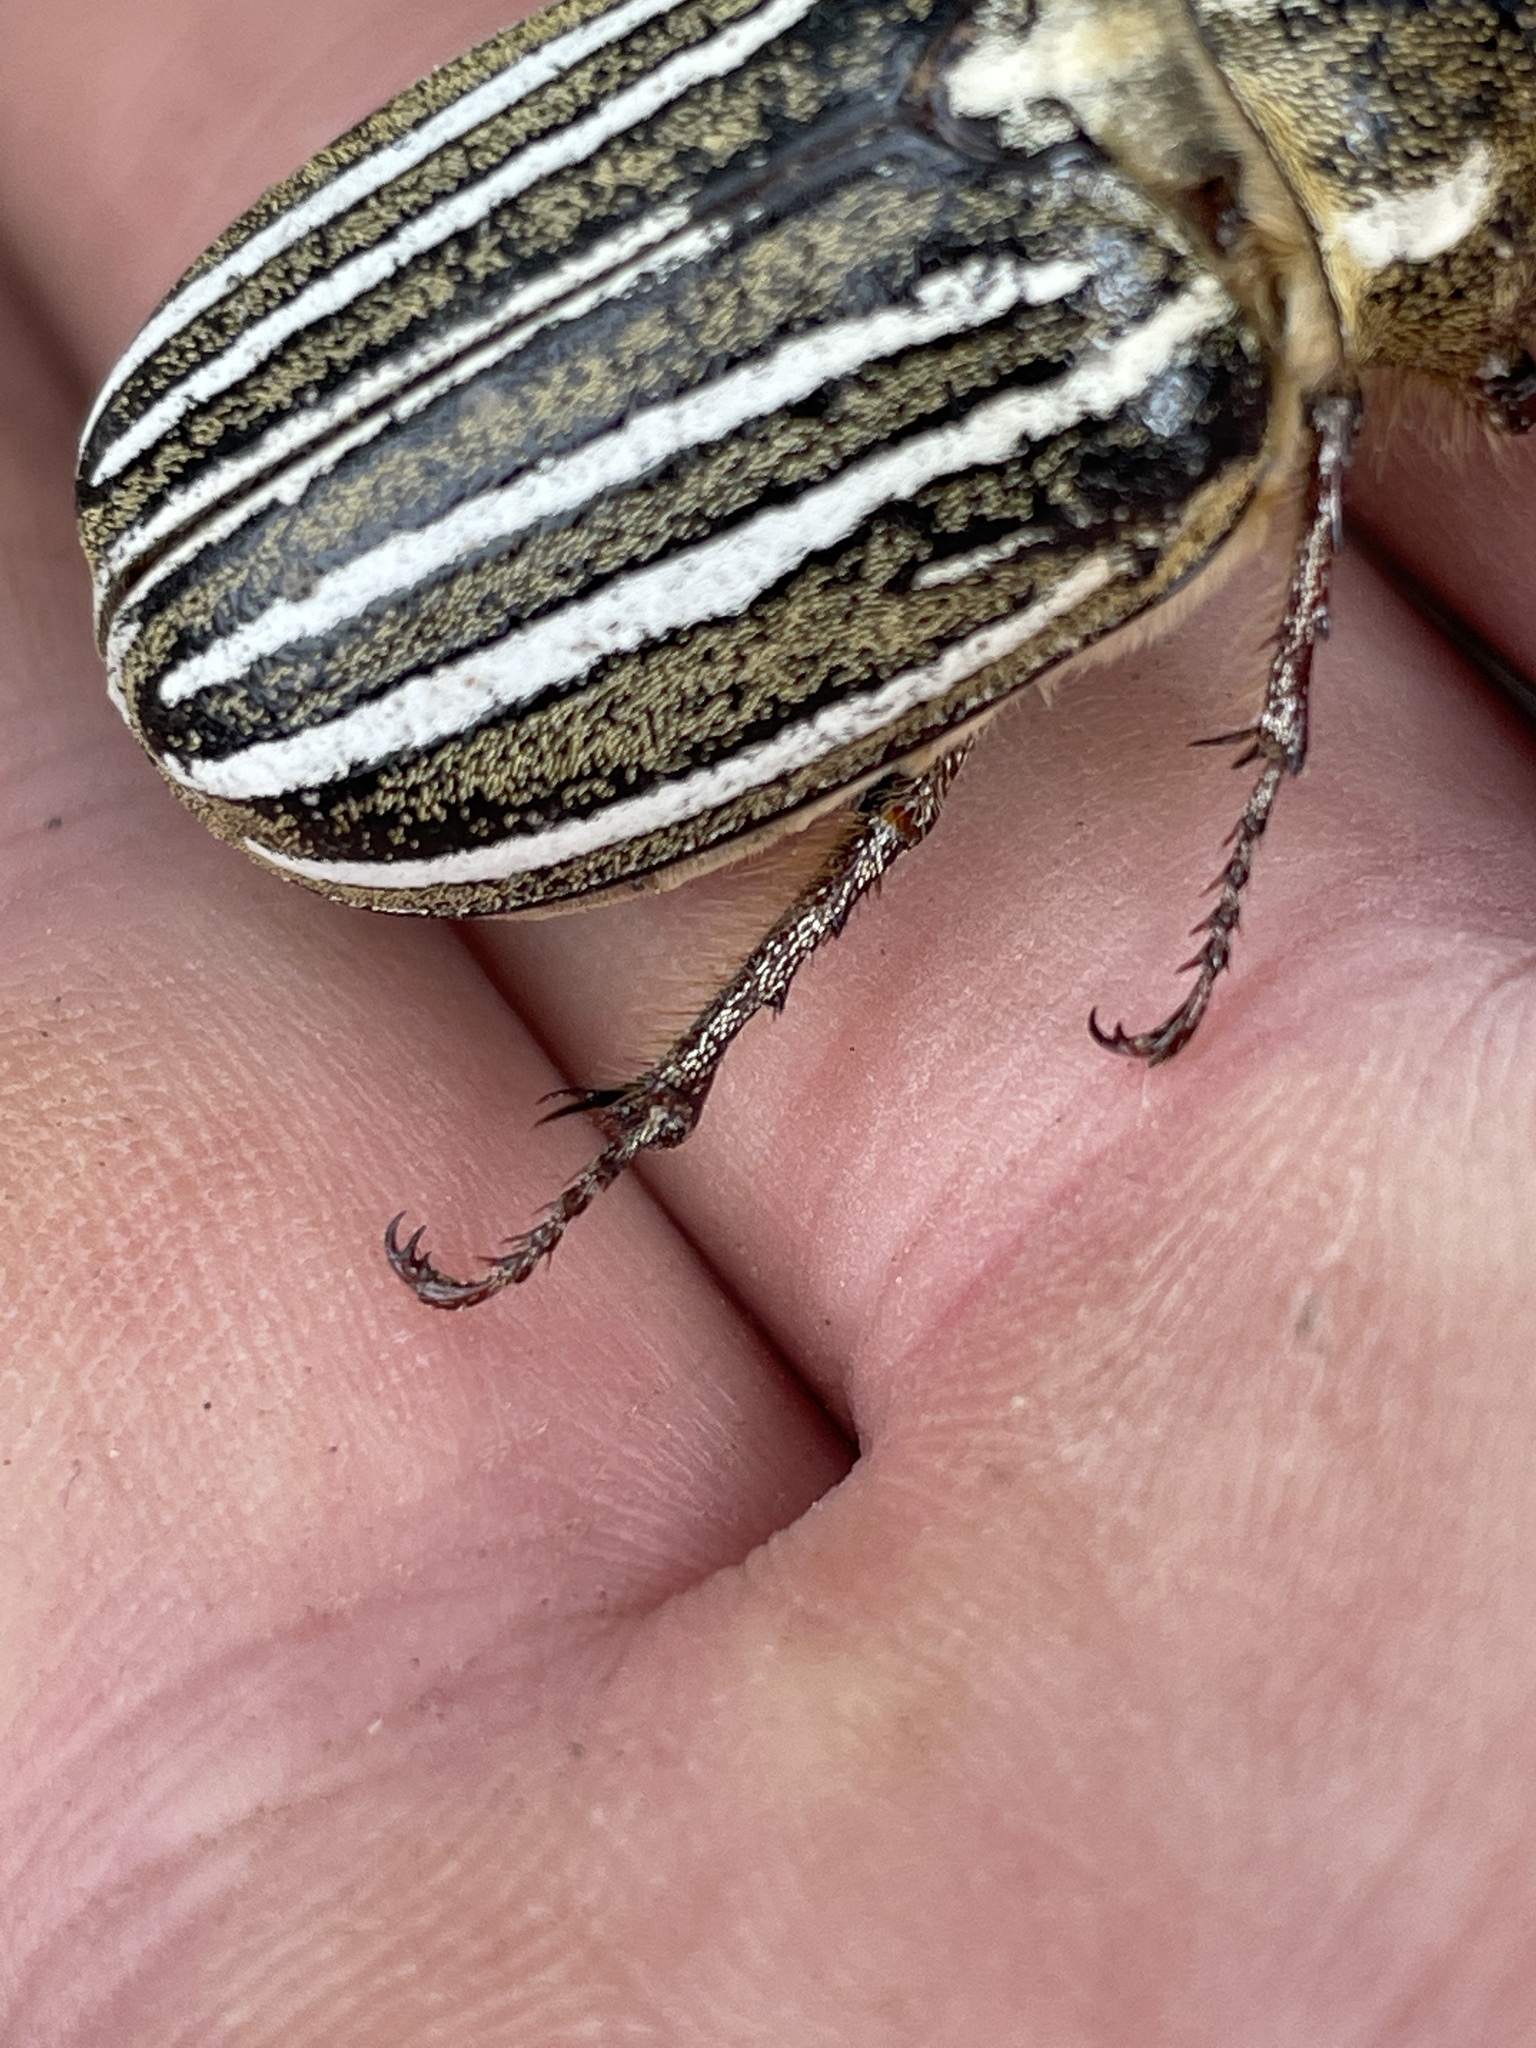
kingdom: Animalia
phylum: Arthropoda
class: Insecta
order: Coleoptera
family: Scarabaeidae
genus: Polyphylla
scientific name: Polyphylla decemlineata
